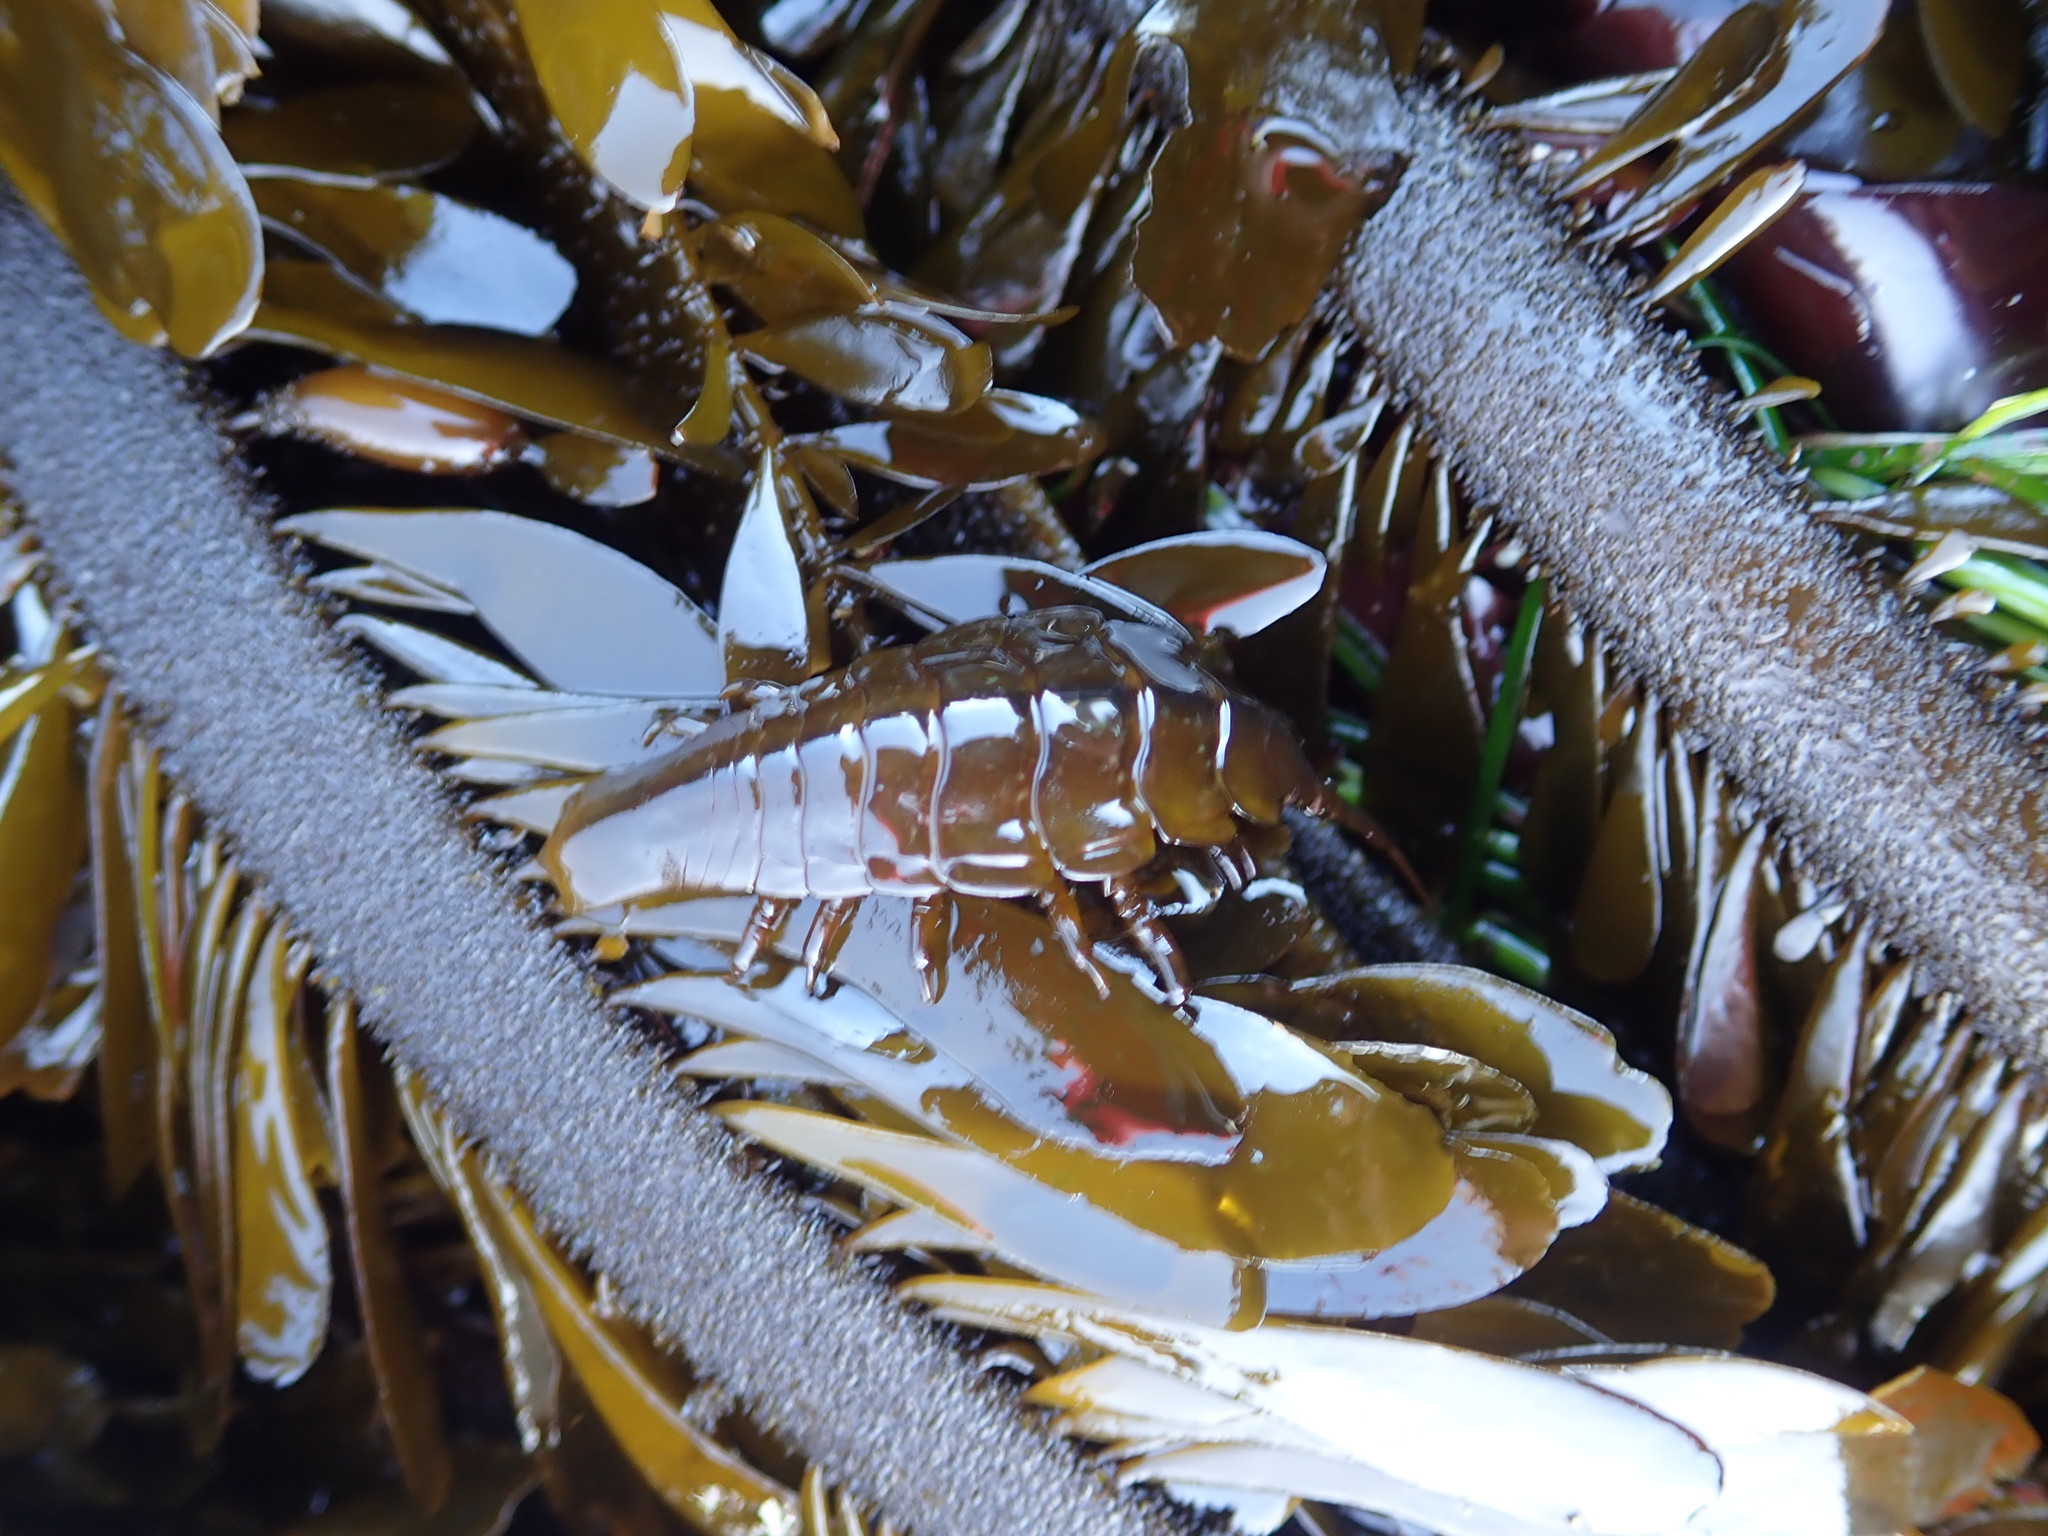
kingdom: Animalia
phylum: Arthropoda
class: Malacostraca
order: Isopoda
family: Idoteidae
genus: Pentidotea
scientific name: Pentidotea stenops
